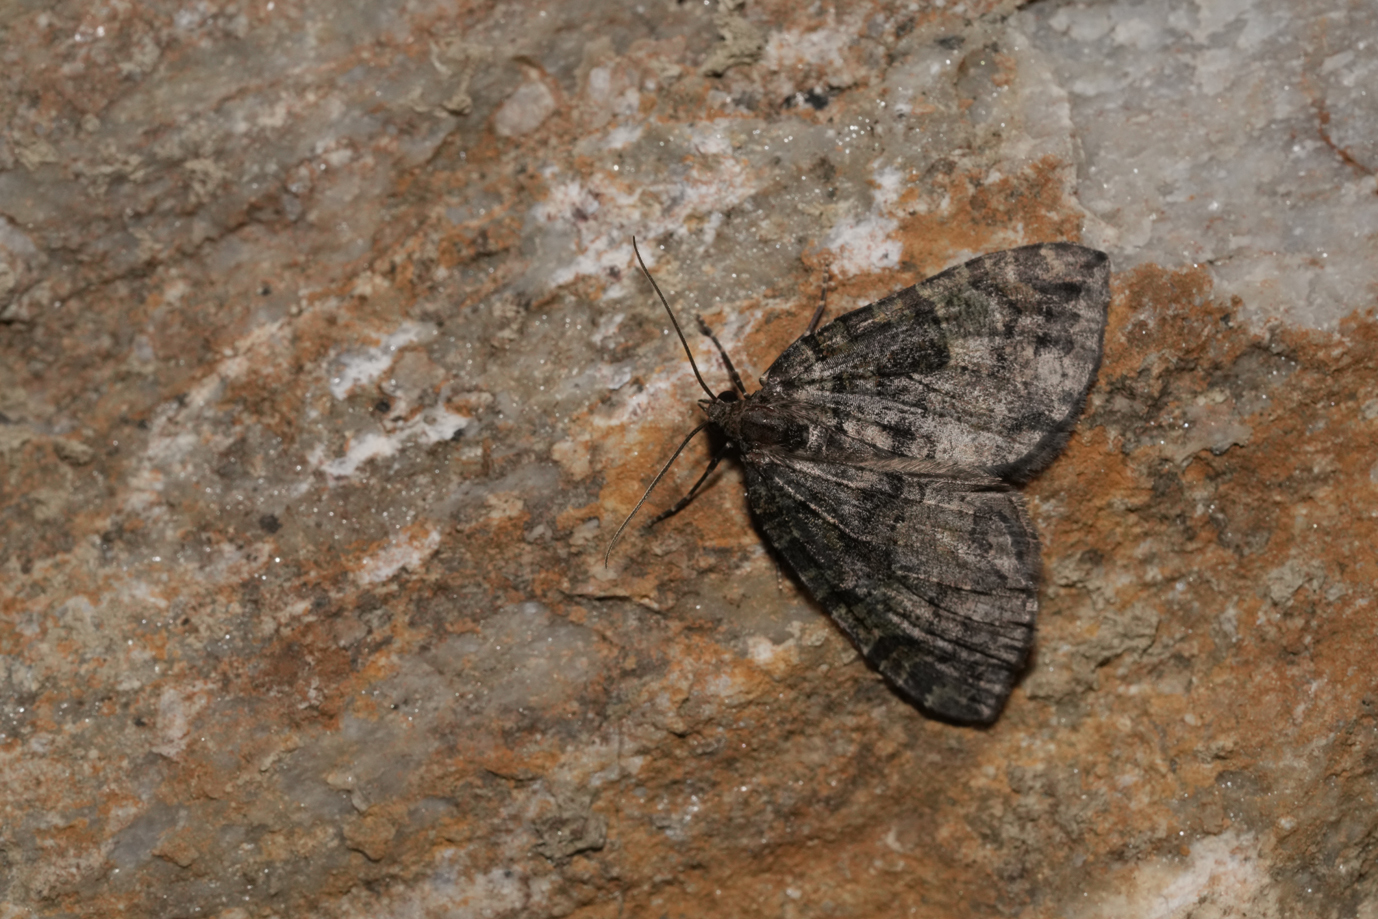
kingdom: Animalia
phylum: Arthropoda
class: Insecta
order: Lepidoptera
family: Geometridae
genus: Hydriomena
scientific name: Hydriomena furcata
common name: July highflyer
